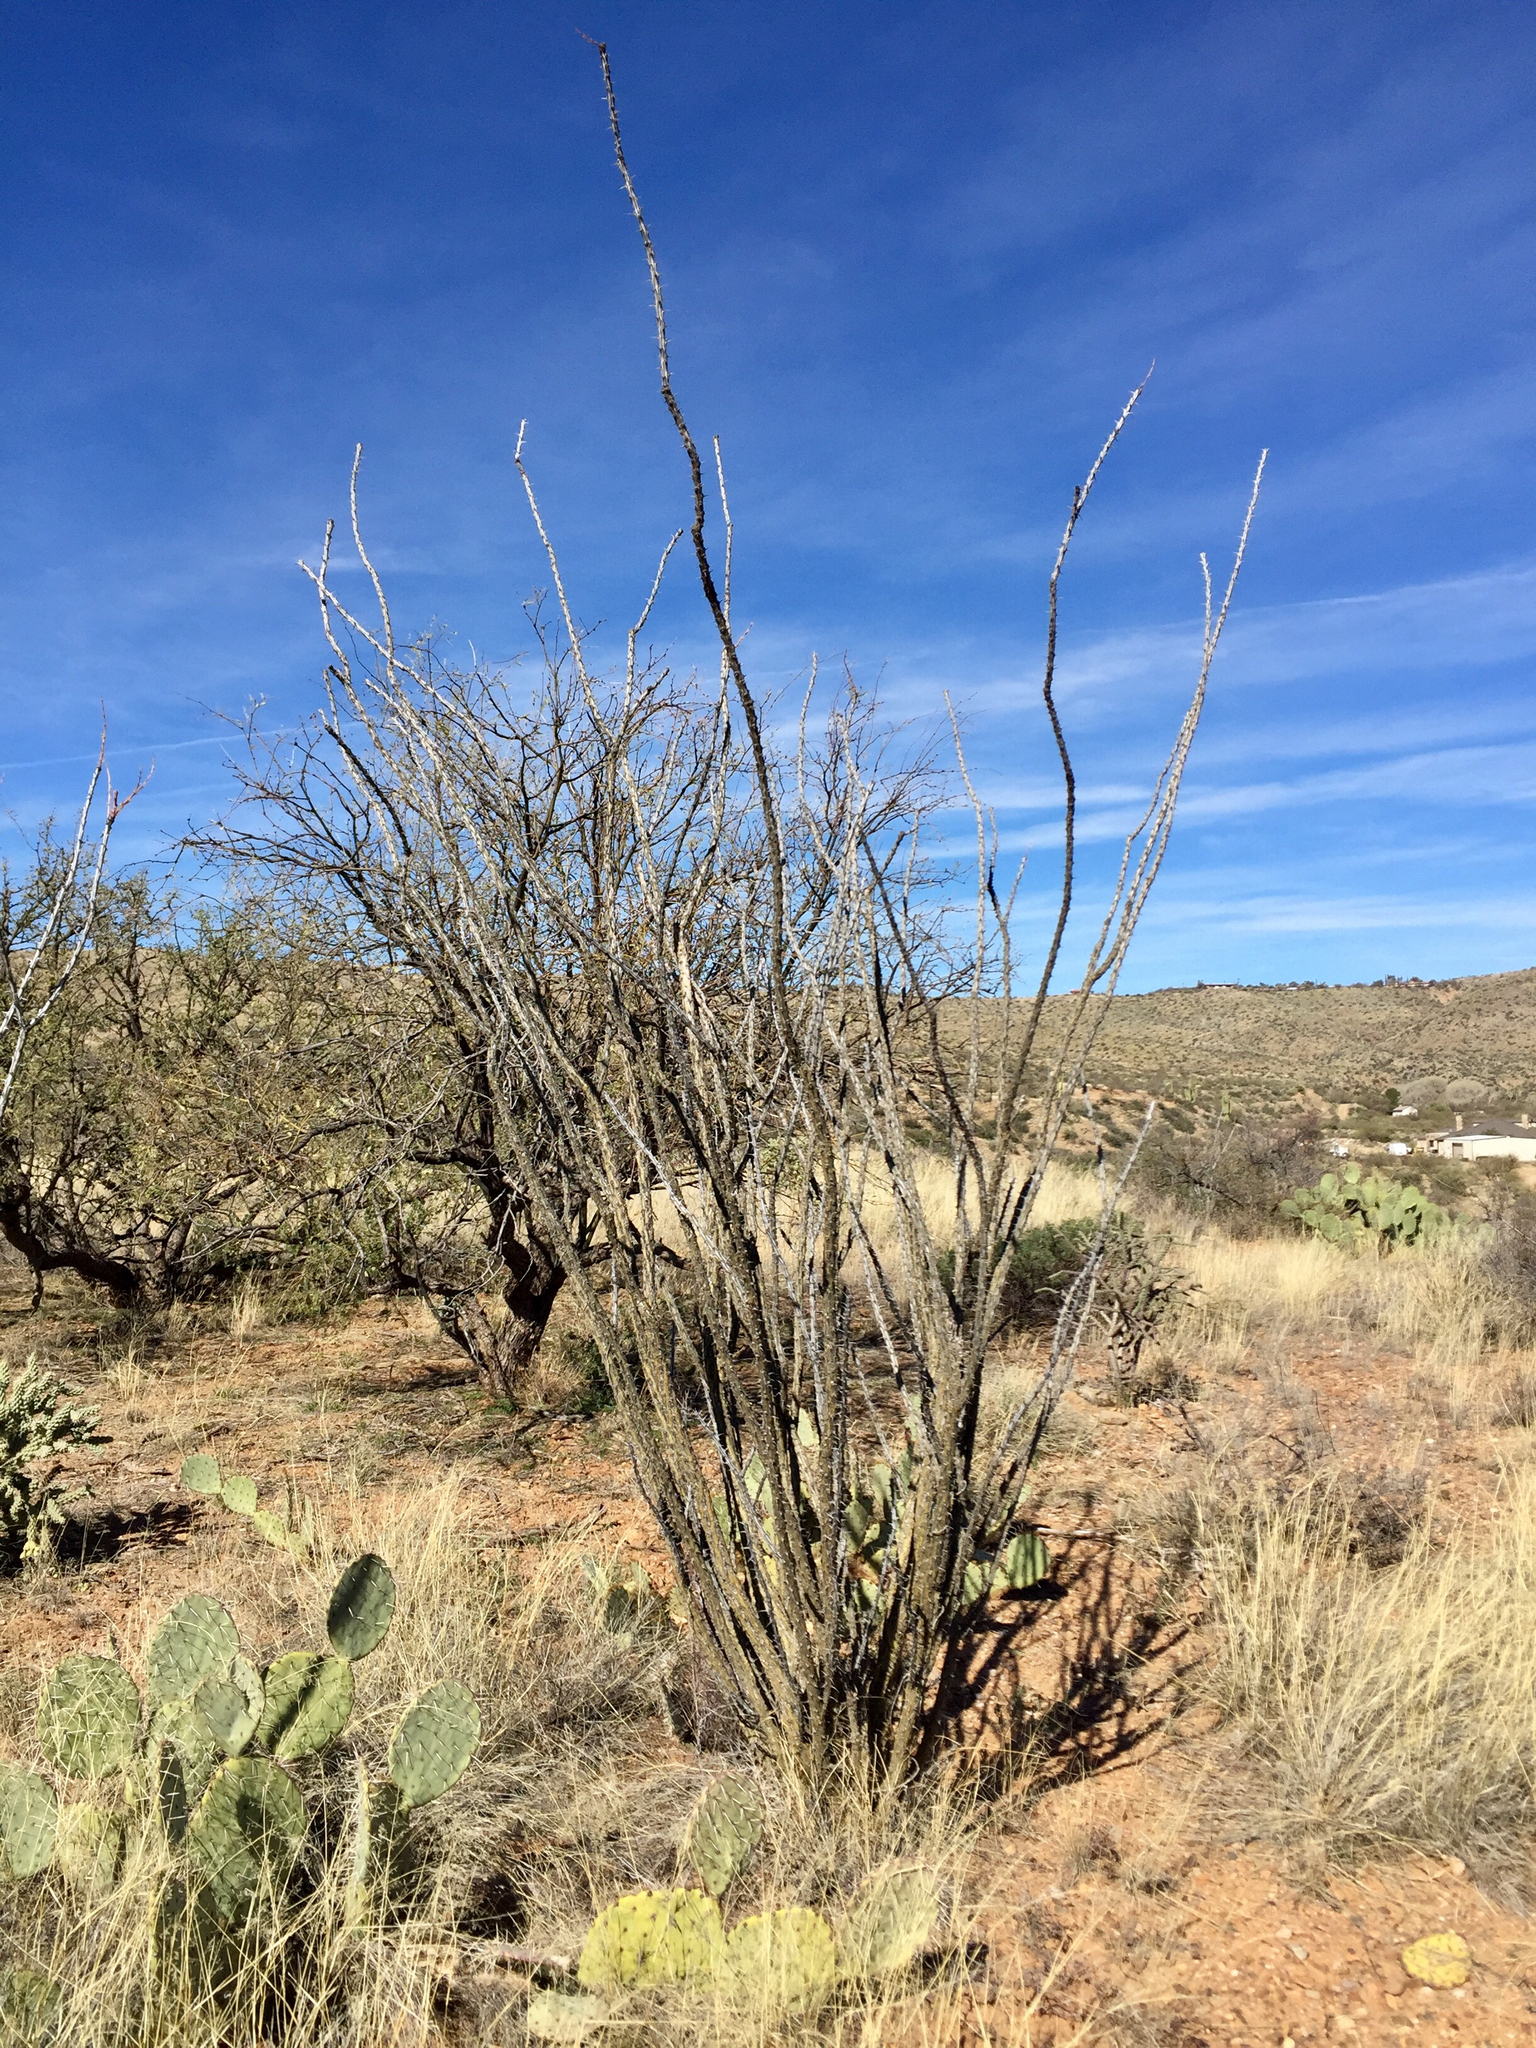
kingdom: Plantae
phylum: Tracheophyta
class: Magnoliopsida
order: Ericales
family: Fouquieriaceae
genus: Fouquieria
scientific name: Fouquieria splendens
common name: Vine-cactus
